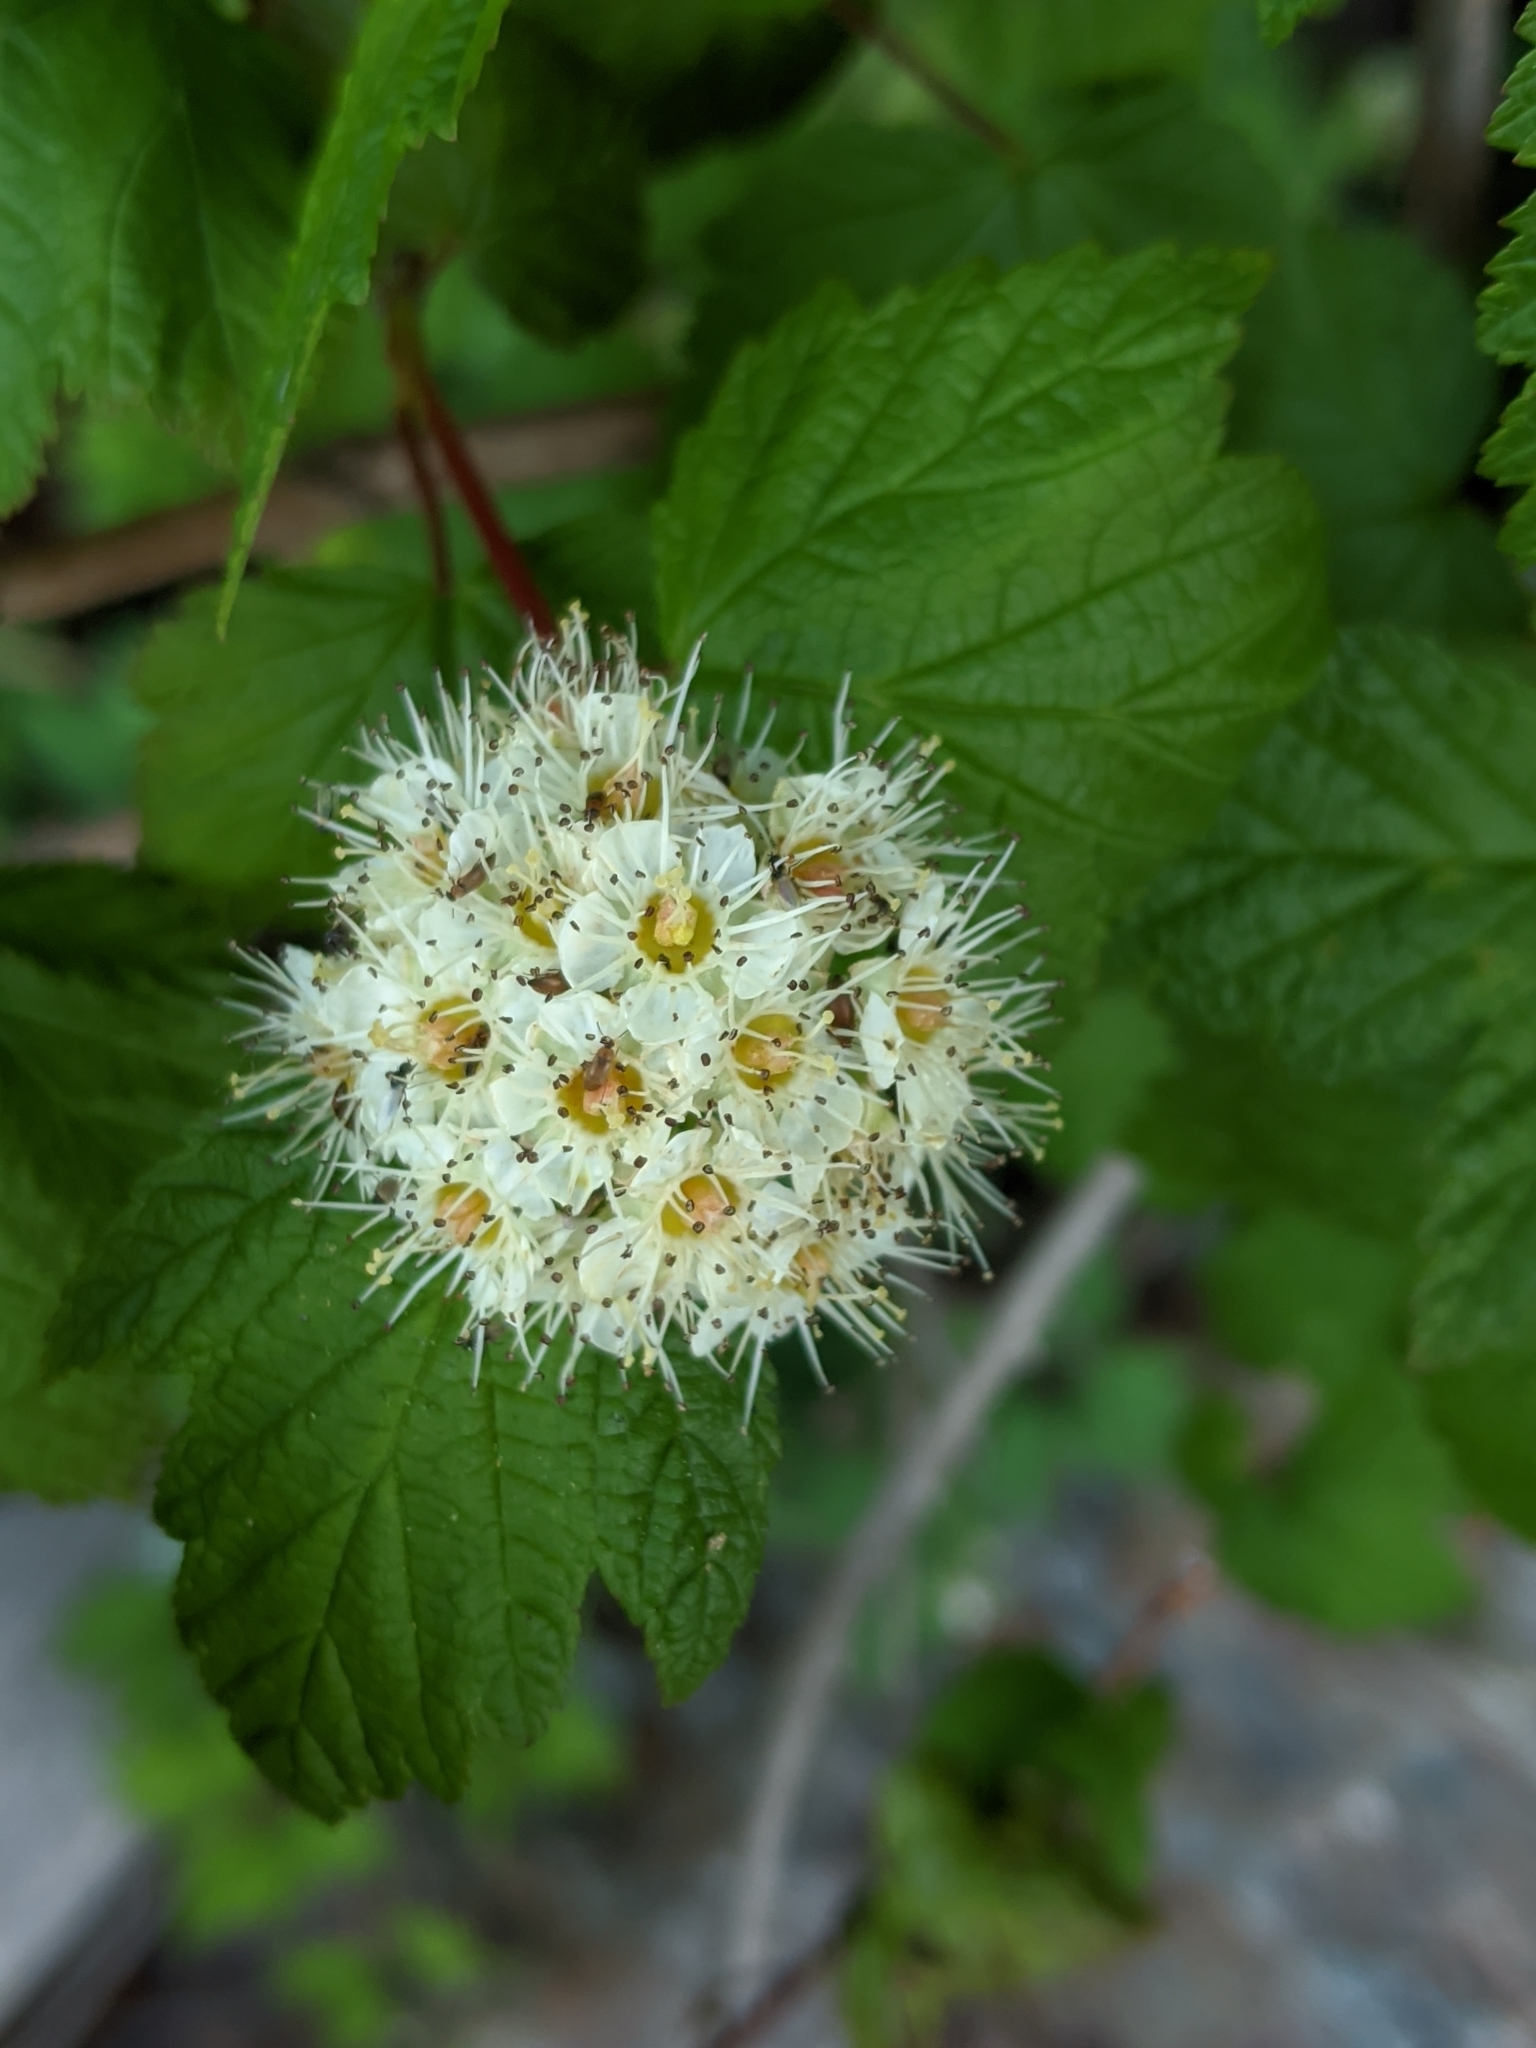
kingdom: Plantae
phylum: Tracheophyta
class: Magnoliopsida
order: Rosales
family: Rosaceae
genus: Physocarpus
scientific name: Physocarpus capitatus
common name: Pacific ninebark
